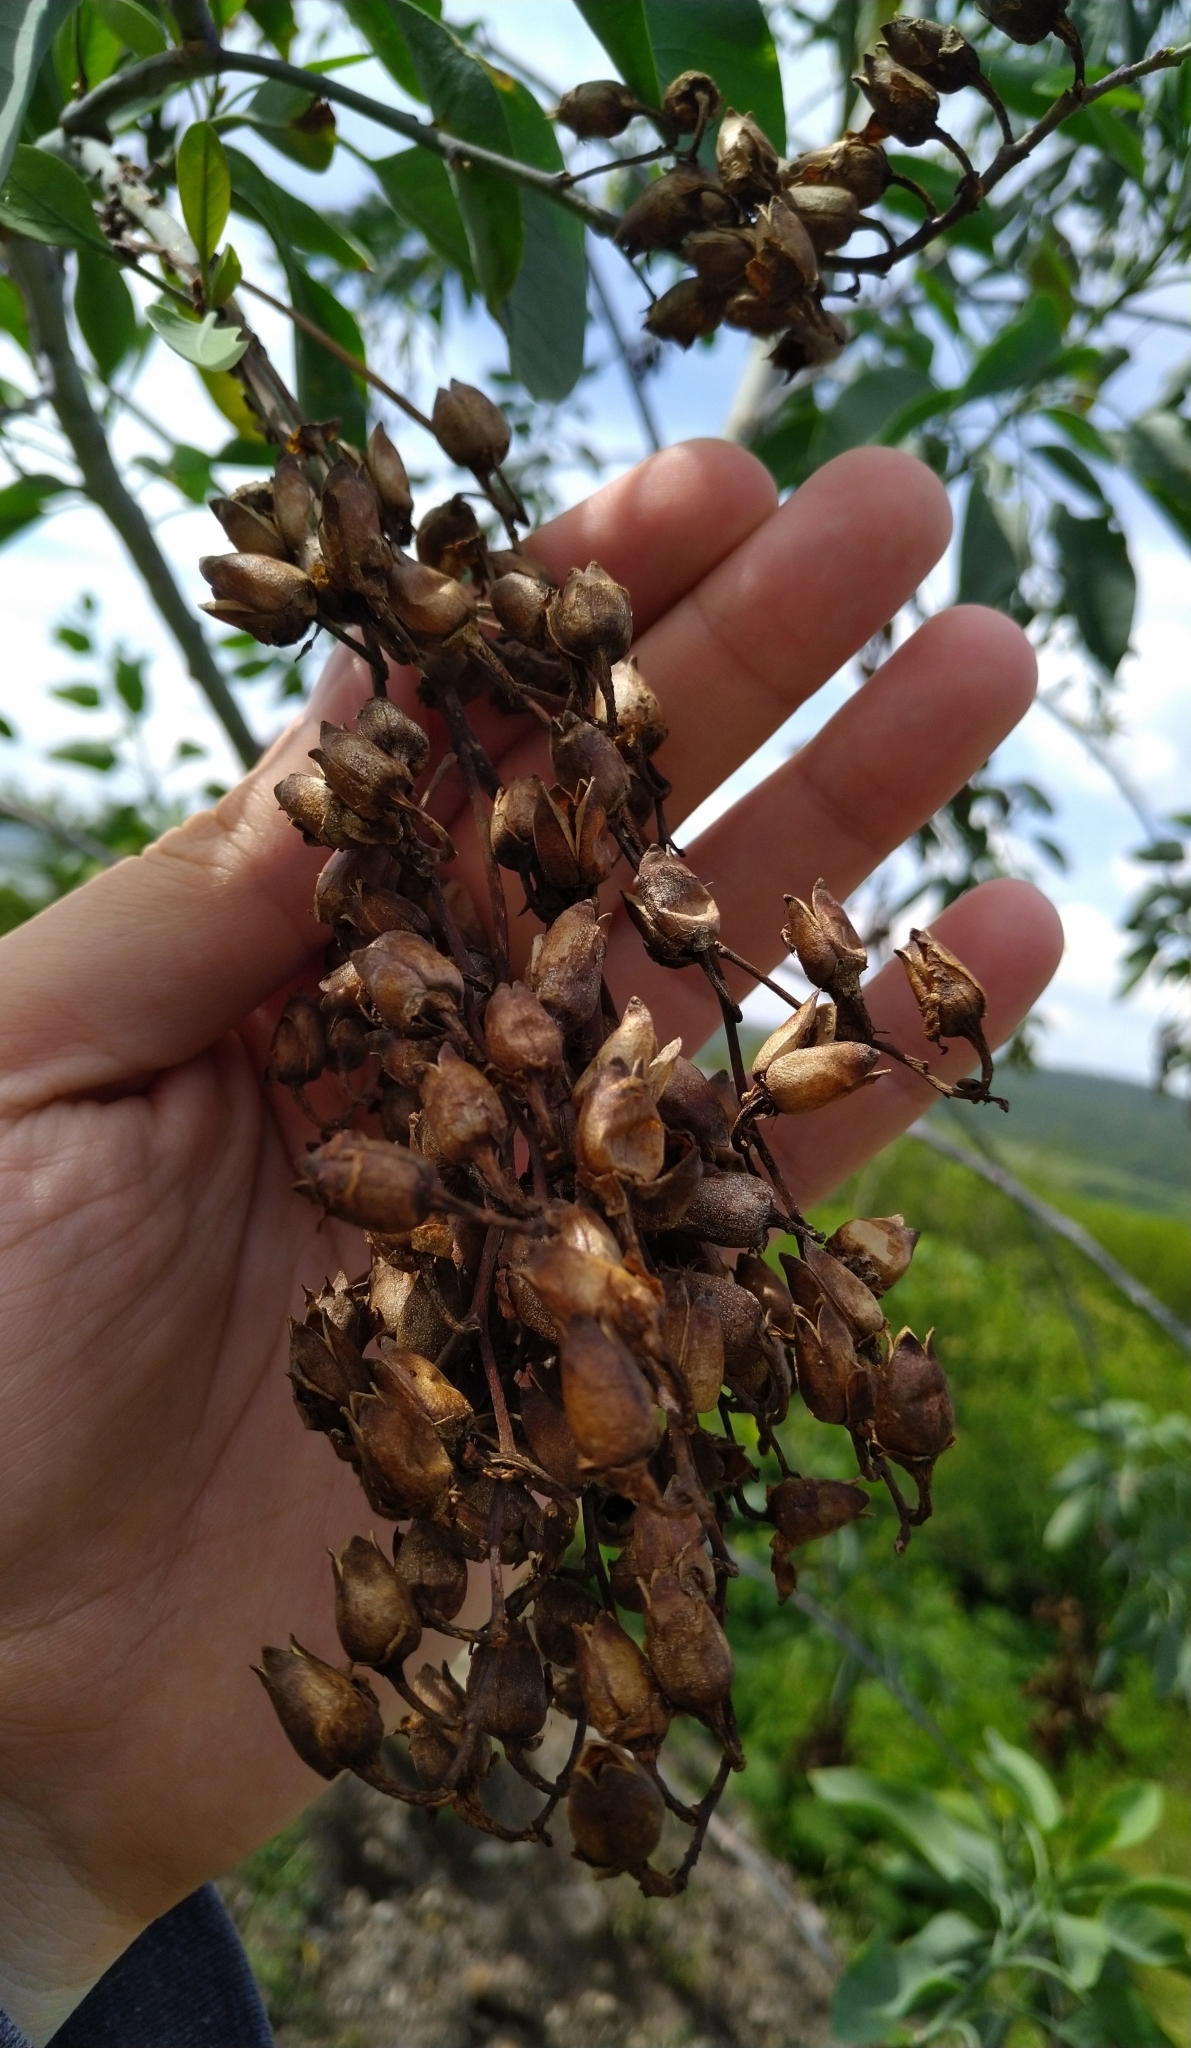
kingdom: Plantae
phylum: Tracheophyta
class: Magnoliopsida
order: Solanales
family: Solanaceae
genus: Nicotiana
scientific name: Nicotiana glauca
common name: Tree tobacco
